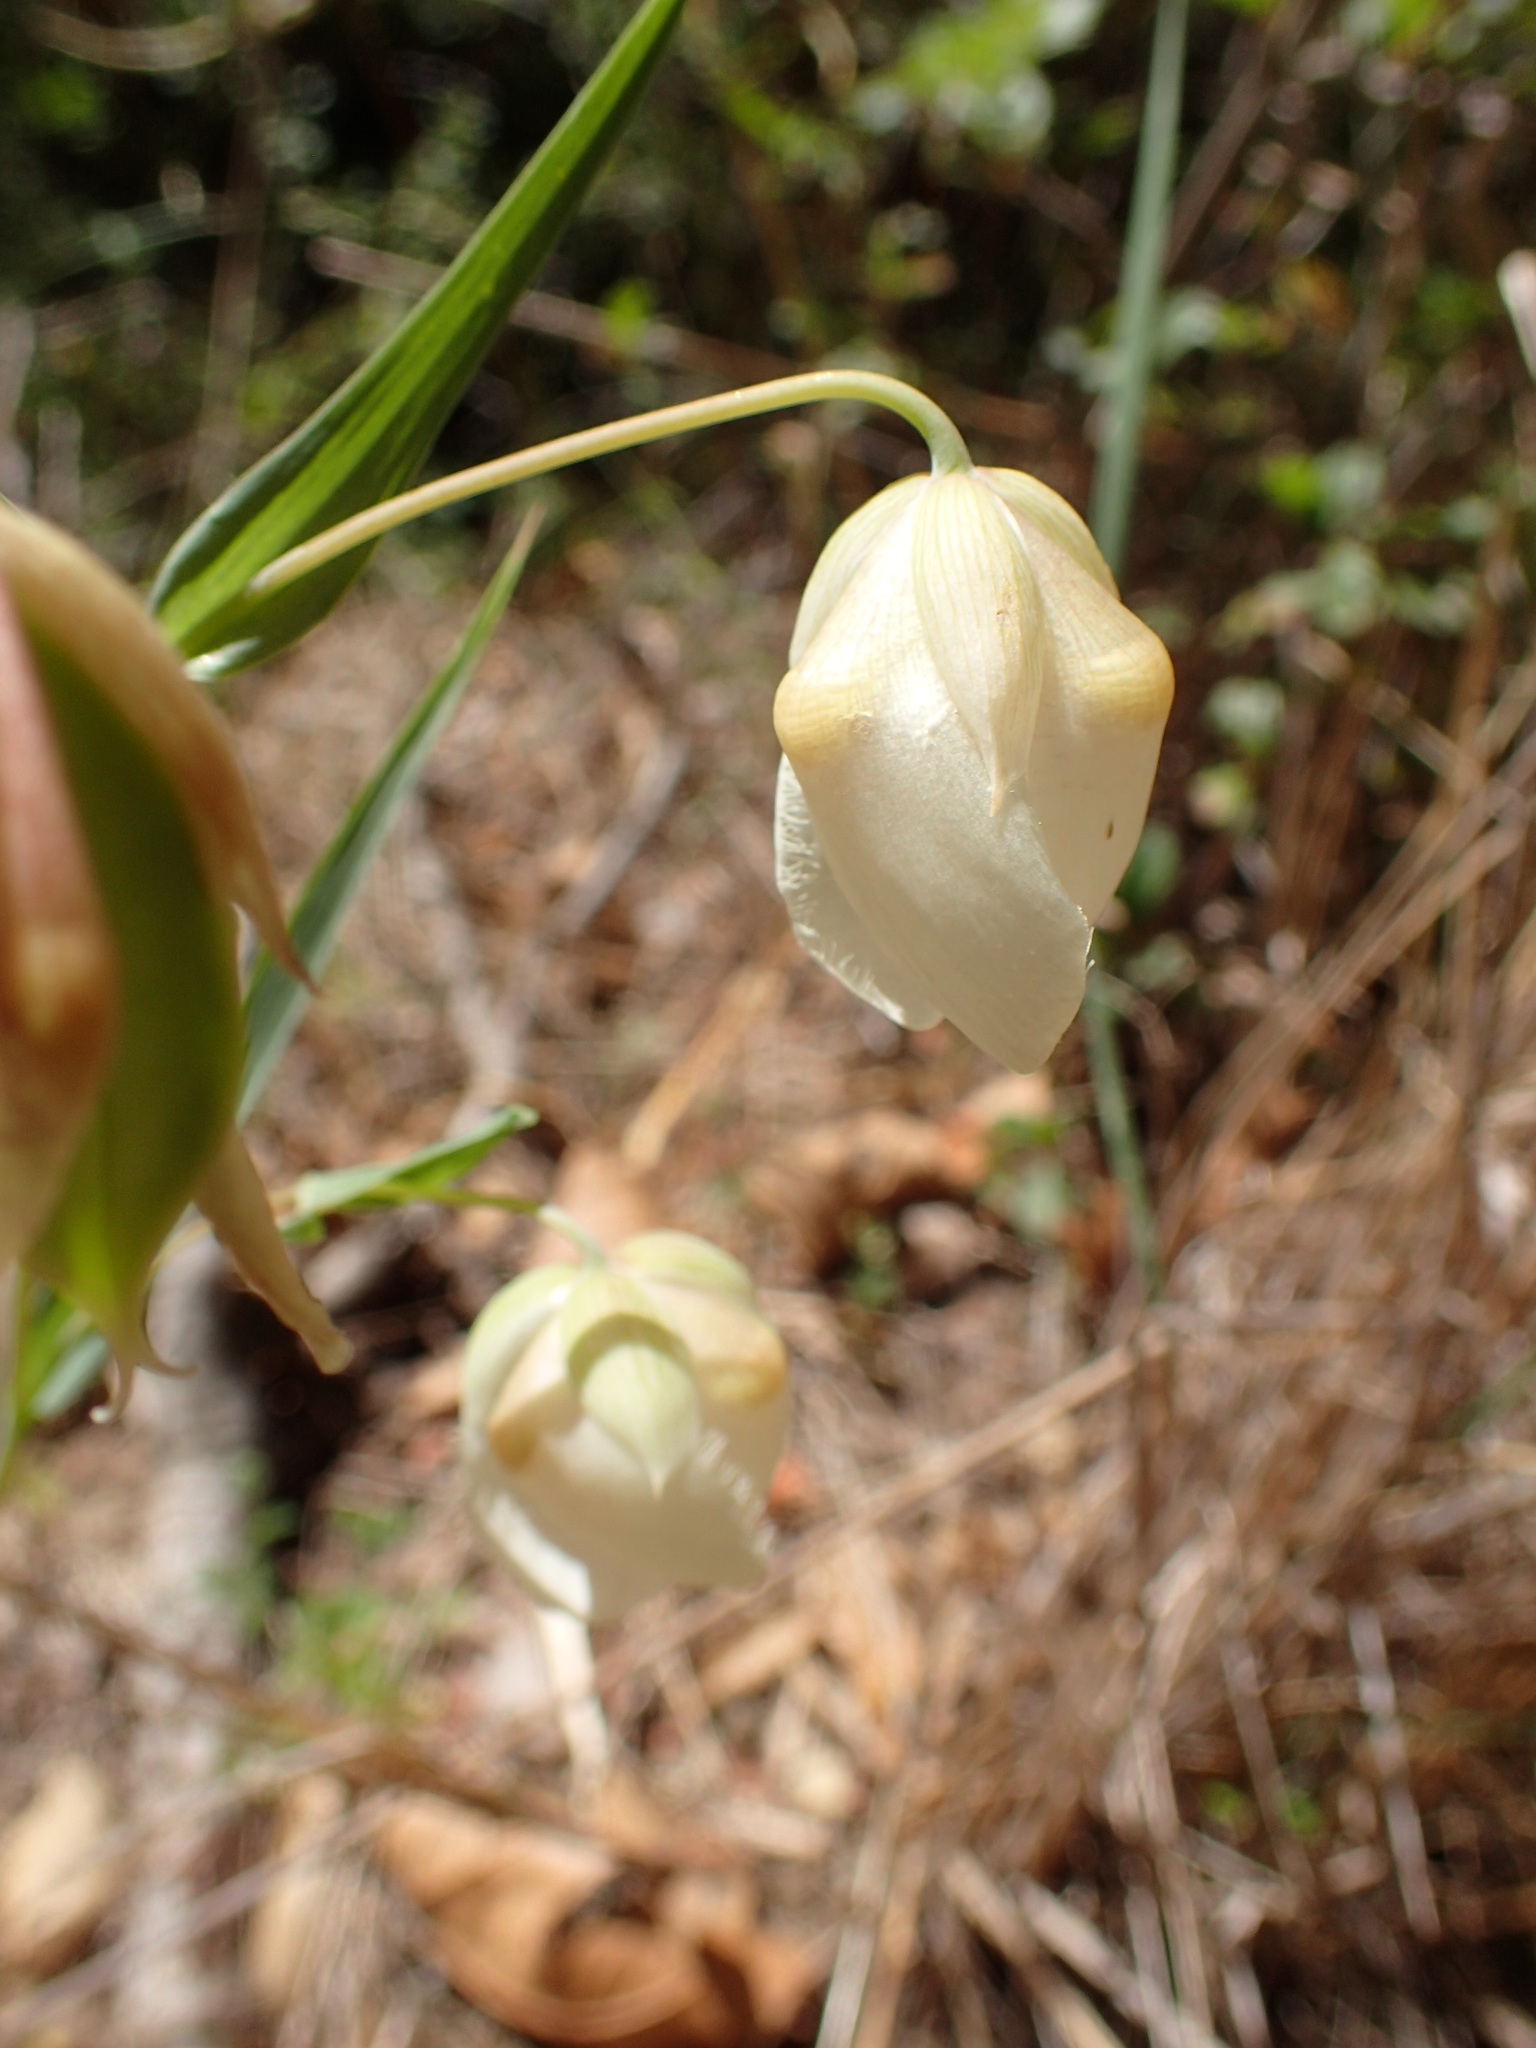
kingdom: Plantae
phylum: Tracheophyta
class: Liliopsida
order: Liliales
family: Liliaceae
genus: Calochortus
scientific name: Calochortus albus
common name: Fairy-lantern
